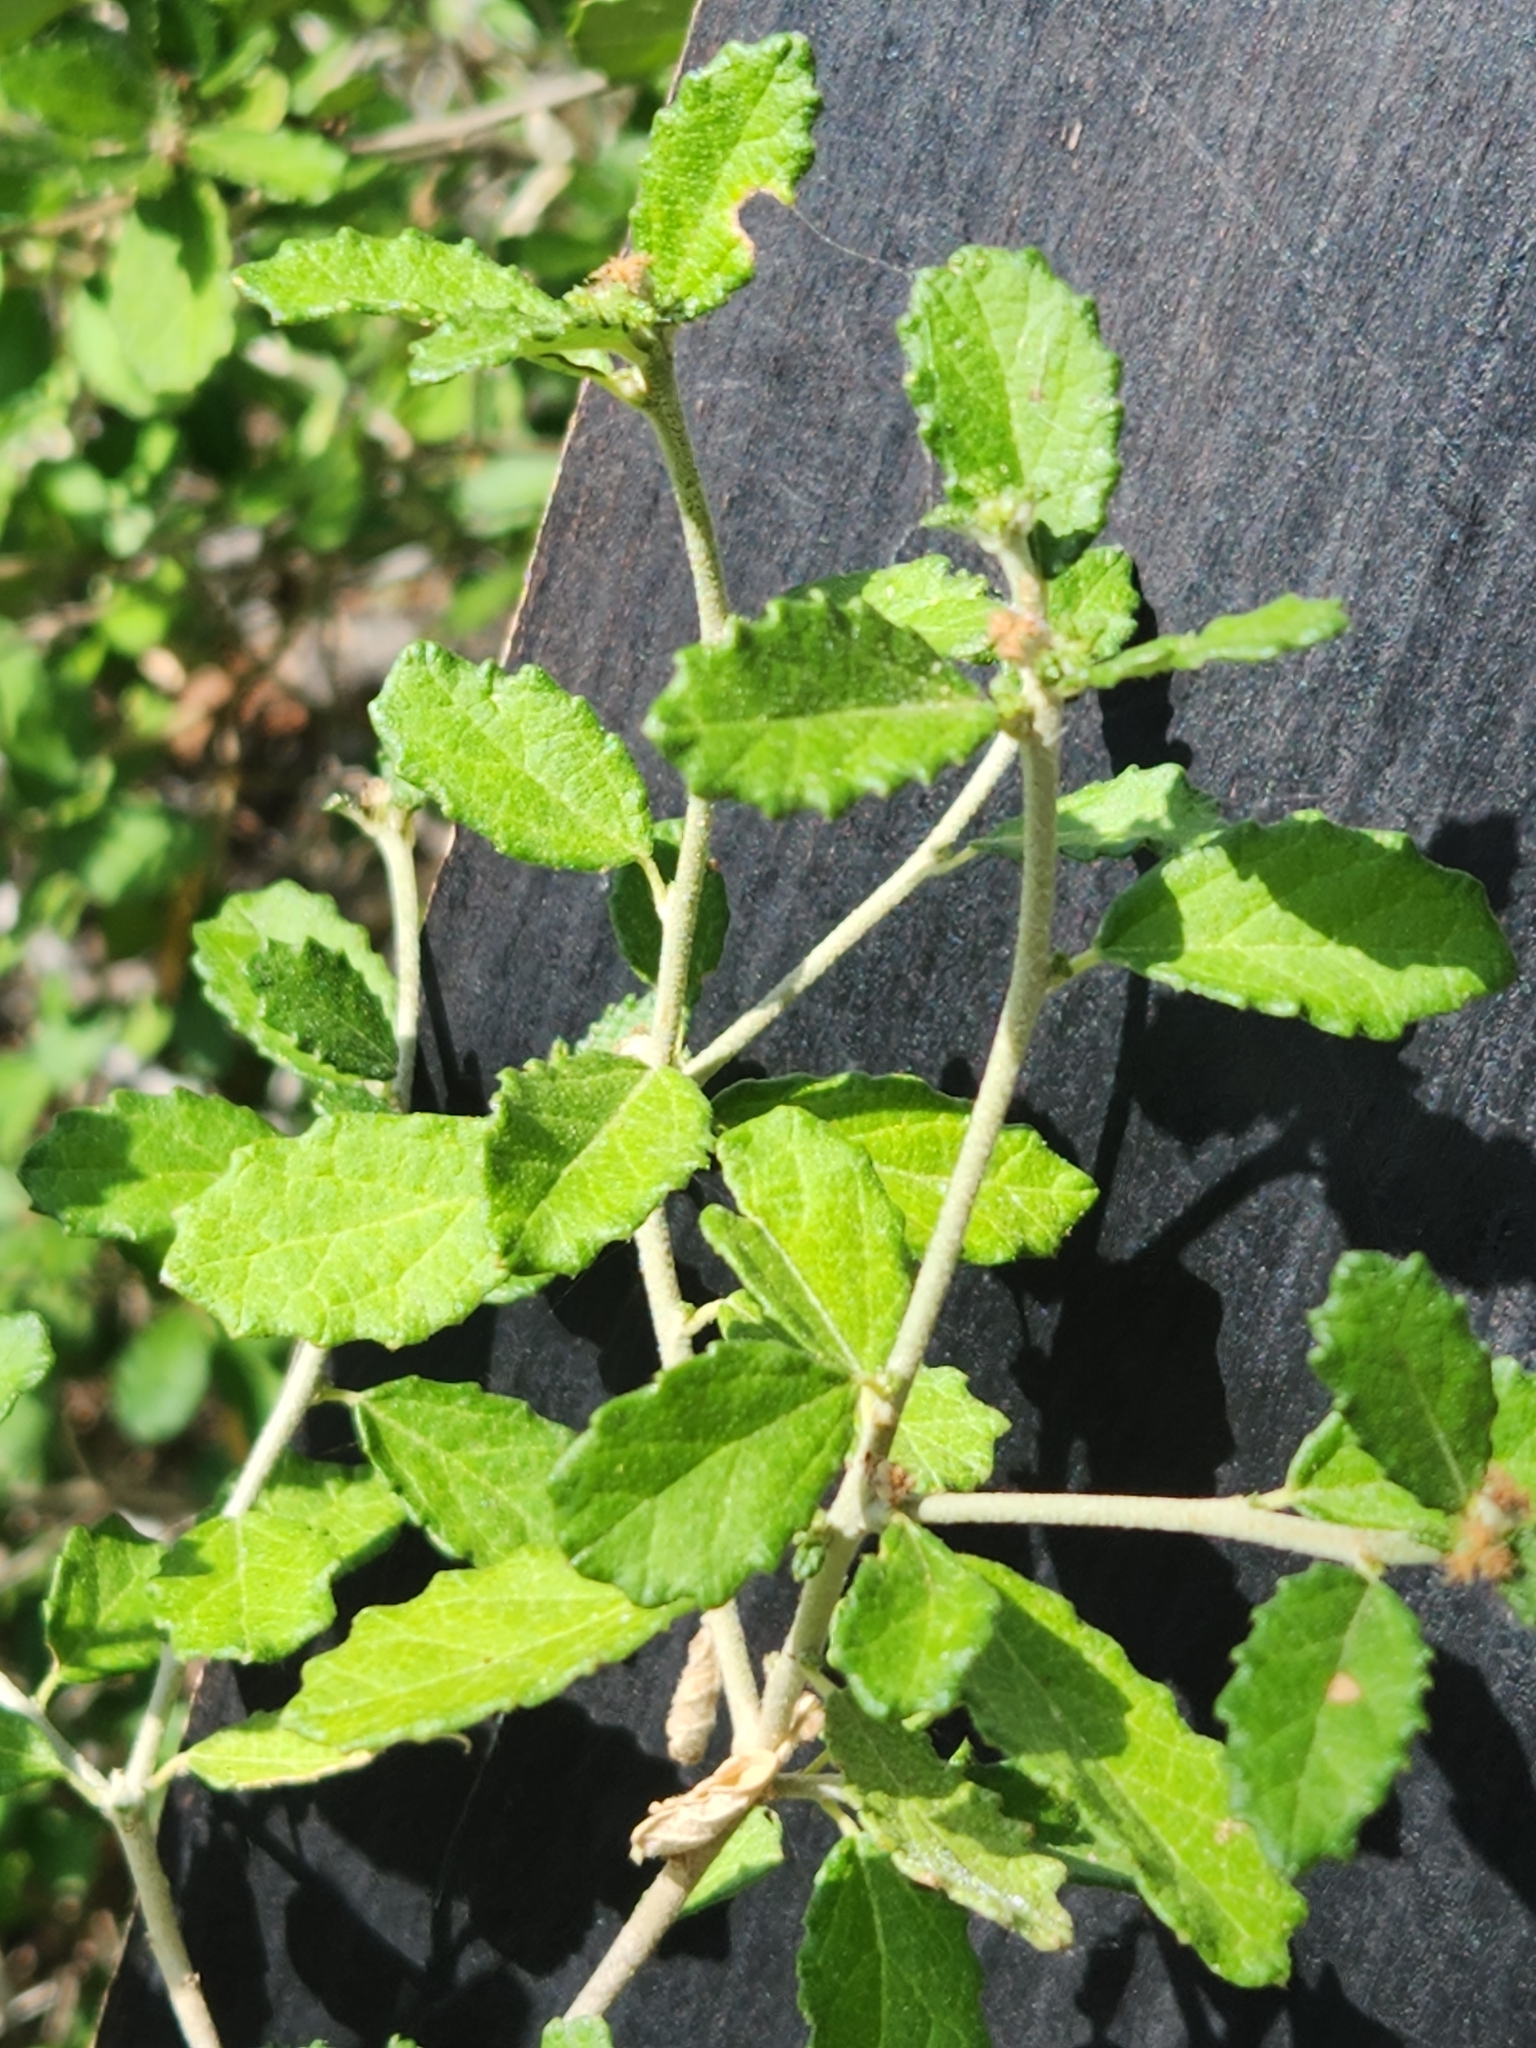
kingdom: Plantae
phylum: Tracheophyta
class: Magnoliopsida
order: Malpighiales
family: Euphorbiaceae
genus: Bernardia
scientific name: Bernardia myricifolia
